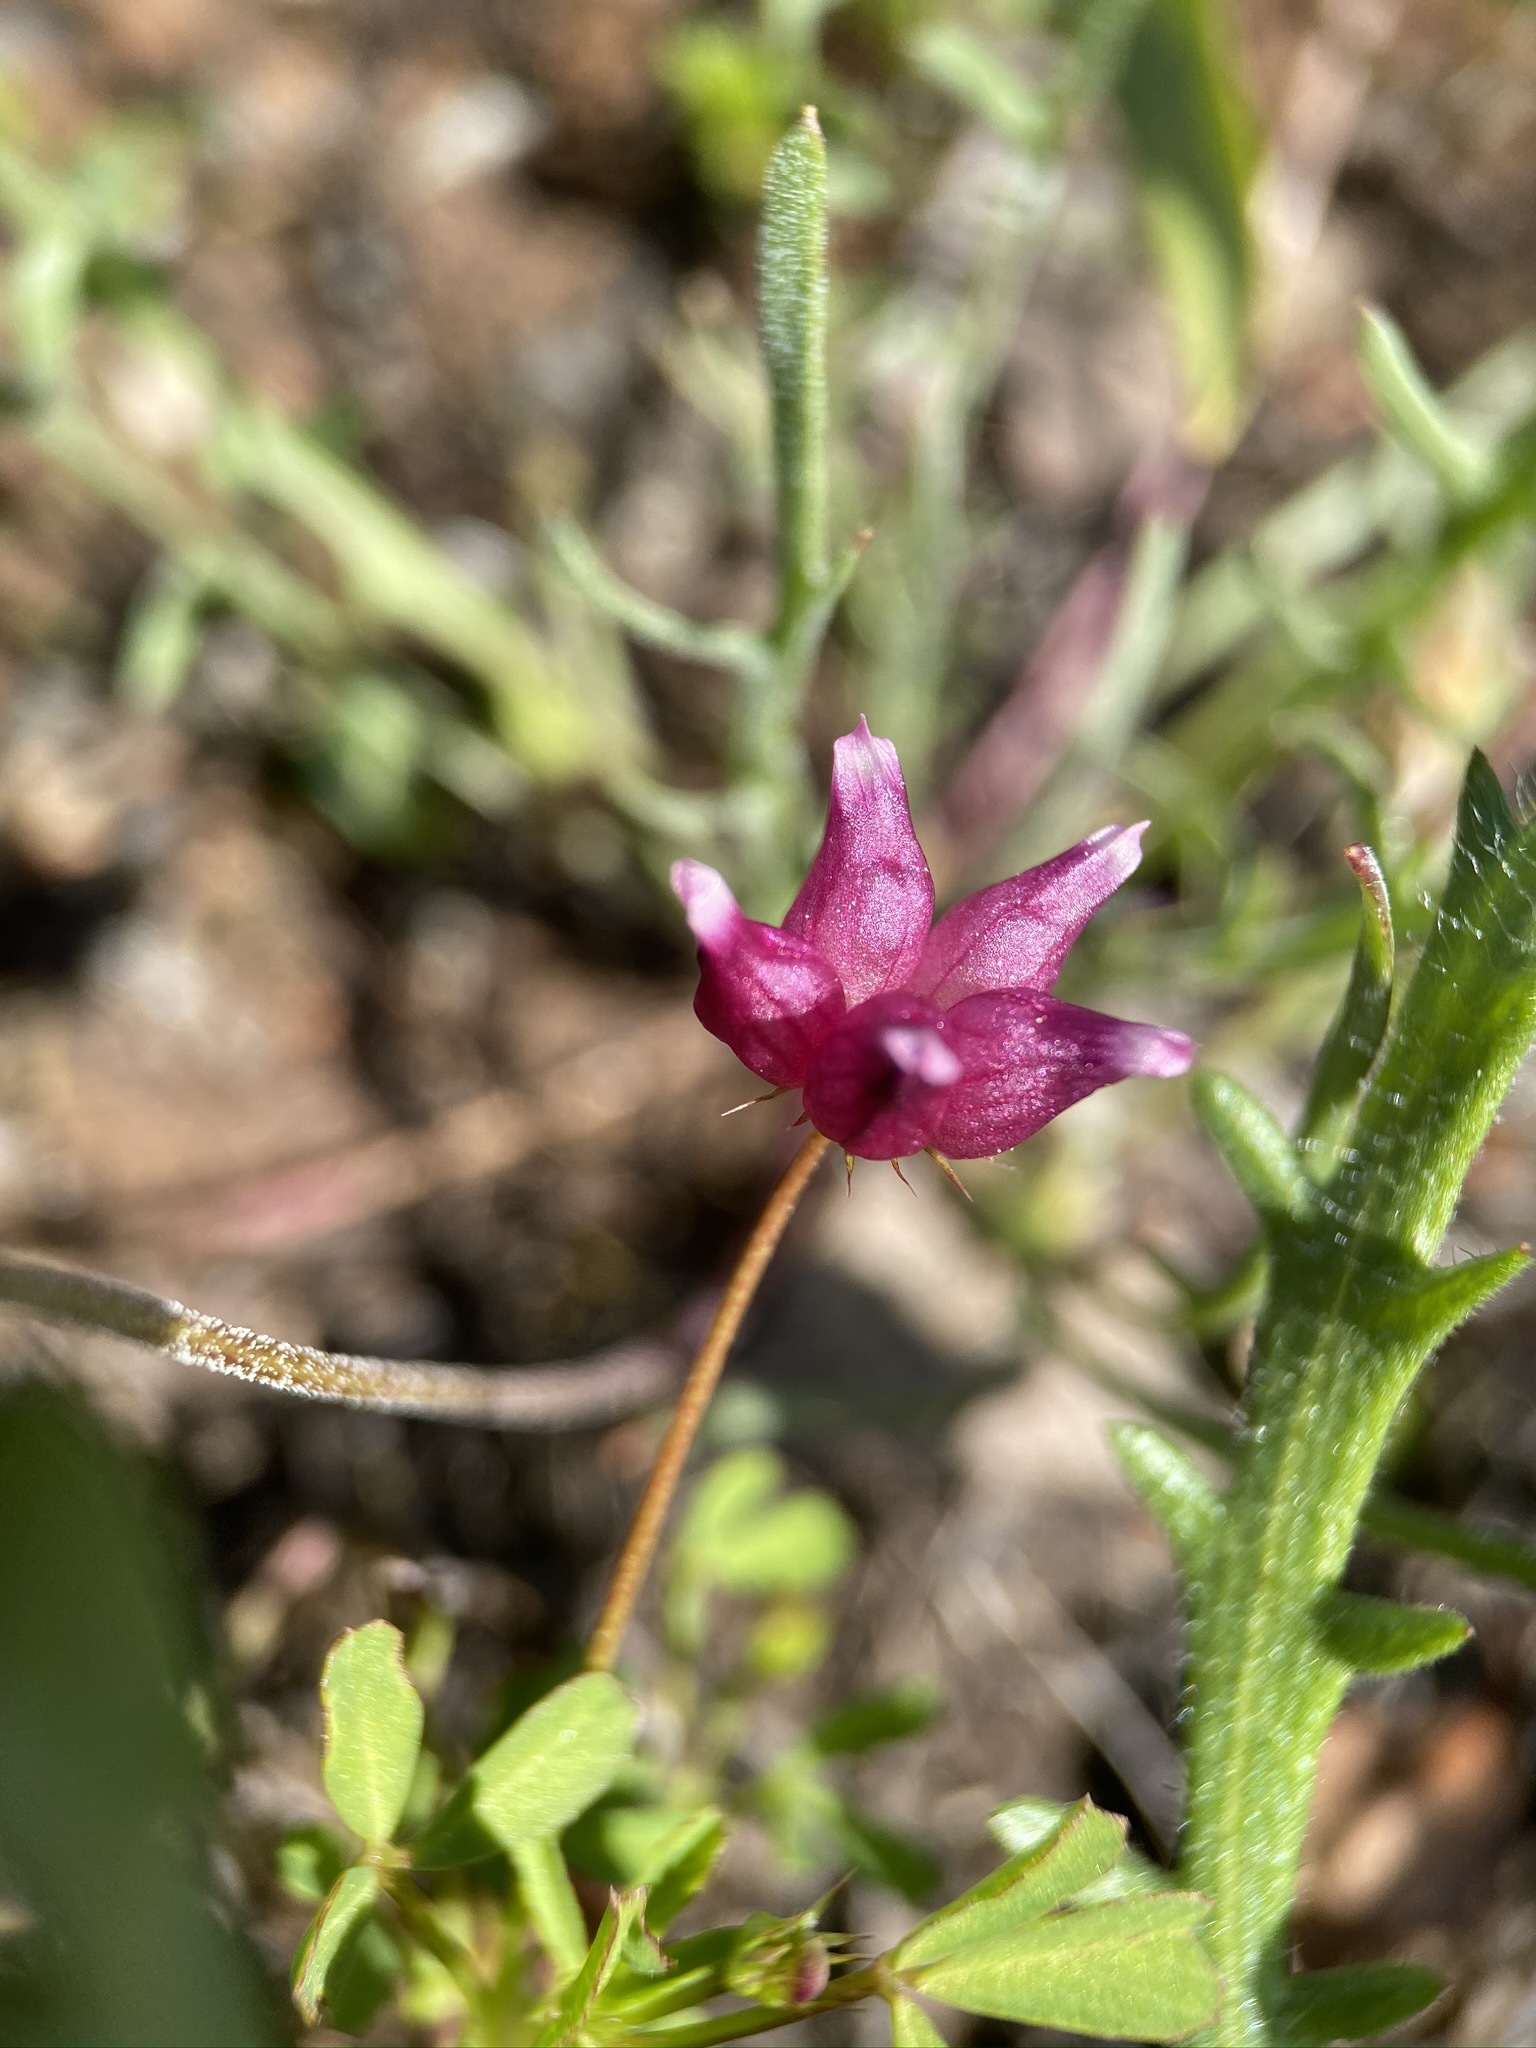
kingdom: Plantae
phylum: Tracheophyta
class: Magnoliopsida
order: Fabales
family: Fabaceae
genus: Trifolium
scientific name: Trifolium depauperatum
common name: Poverty clover
